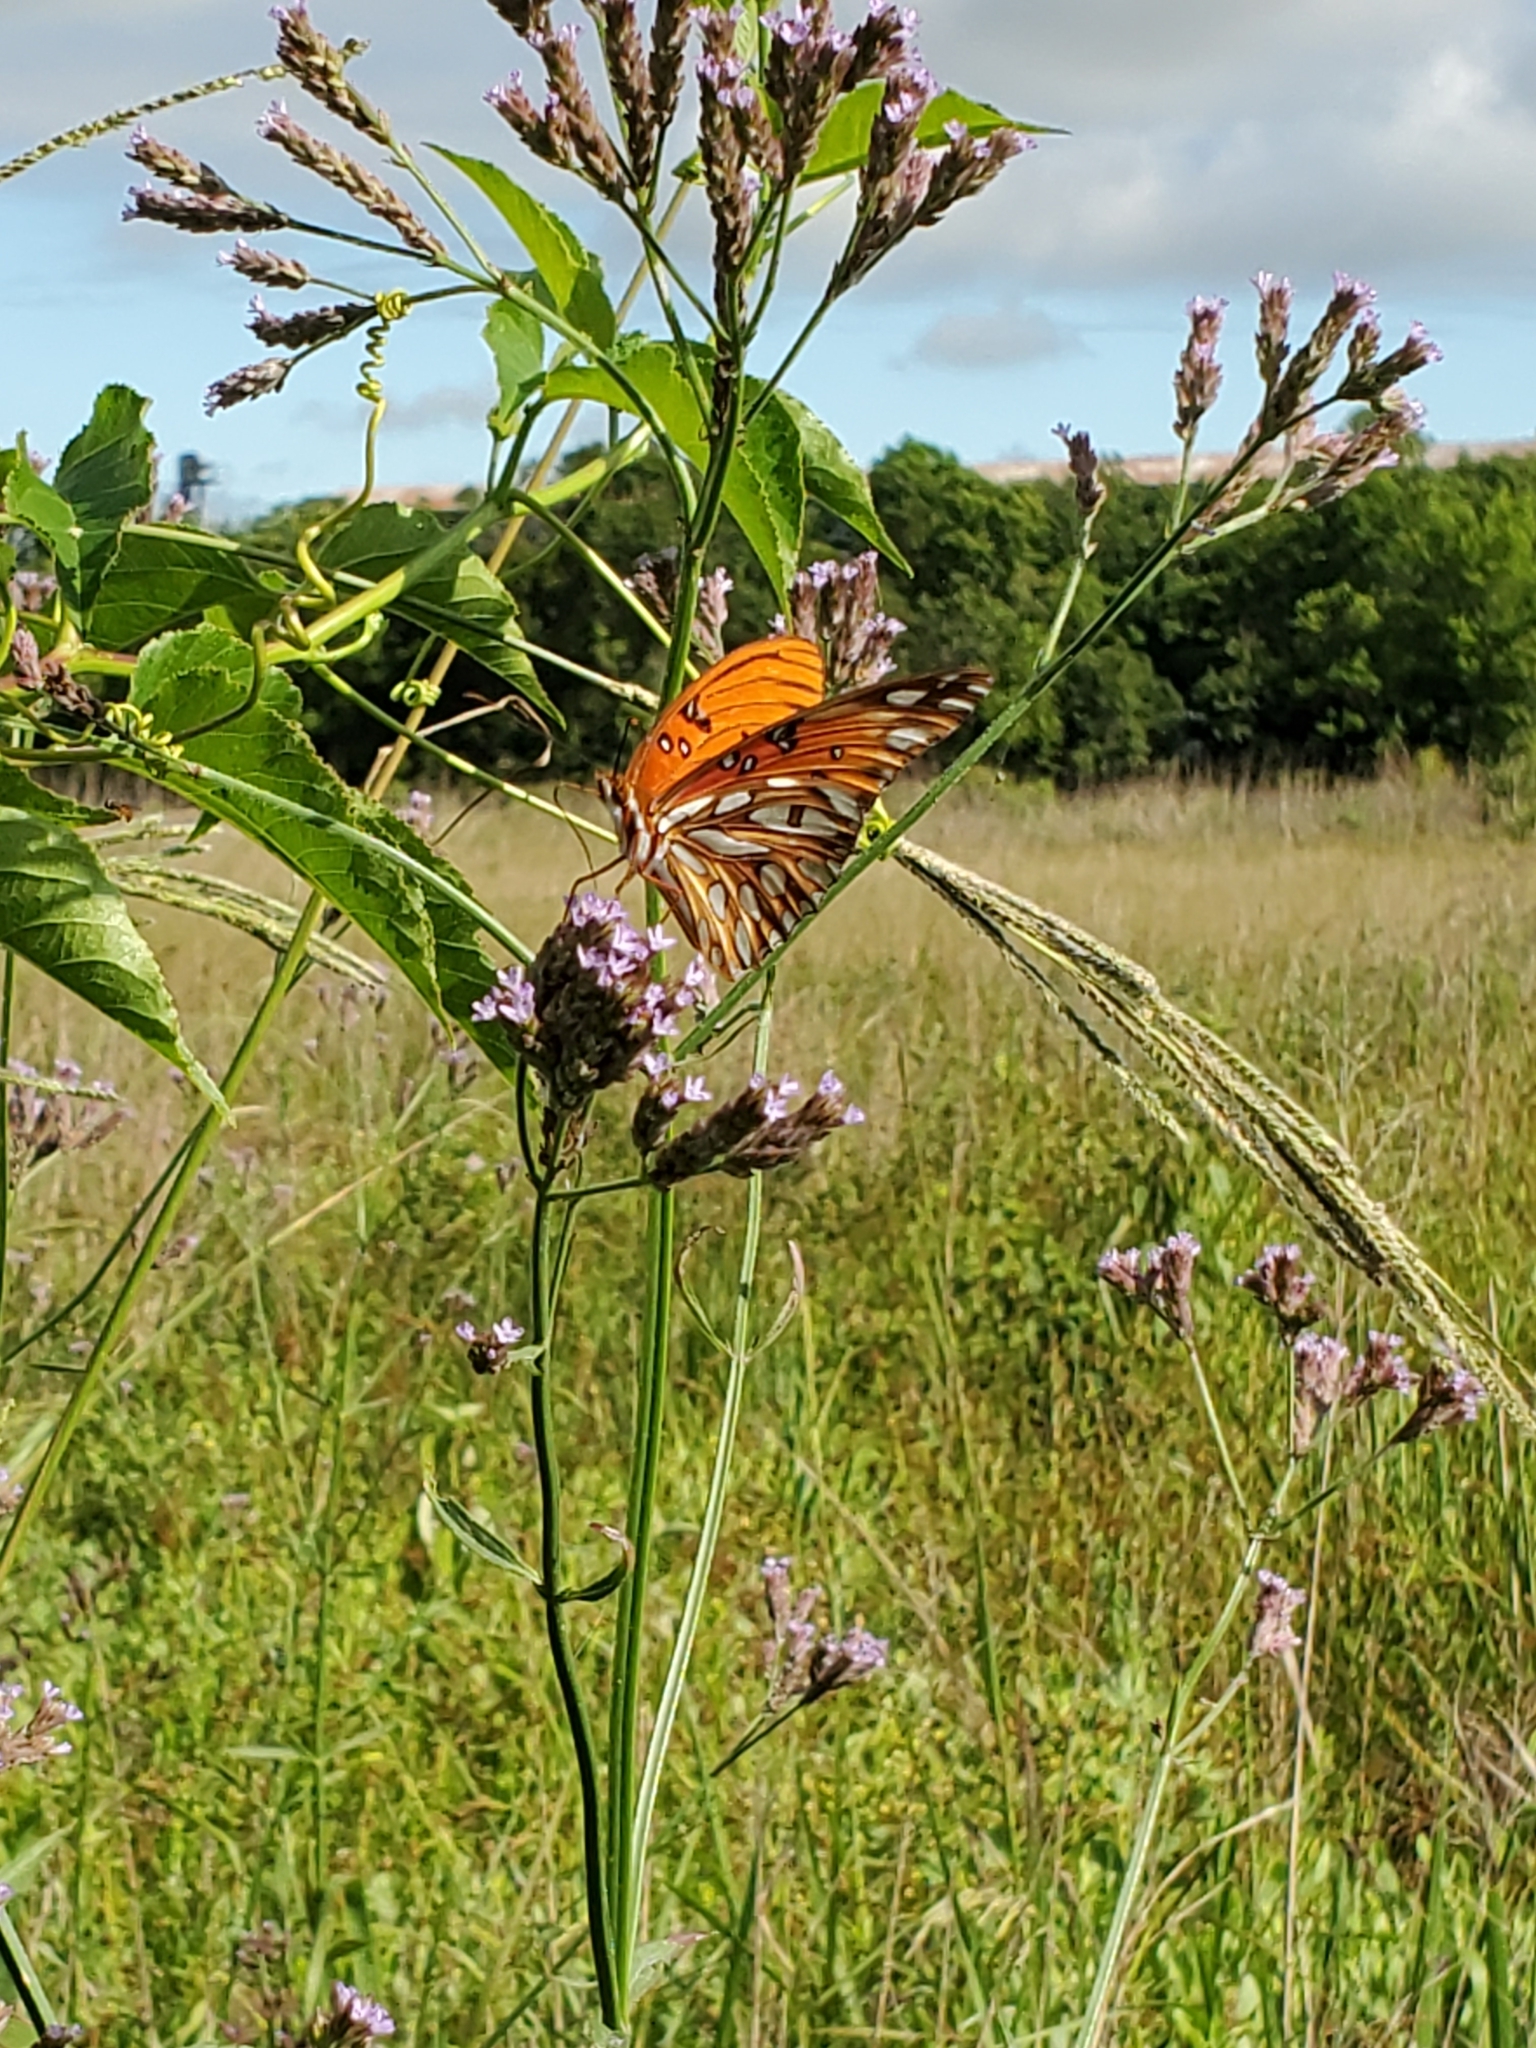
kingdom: Animalia
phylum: Arthropoda
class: Insecta
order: Lepidoptera
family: Nymphalidae
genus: Dione
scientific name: Dione vanillae
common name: Gulf fritillary
